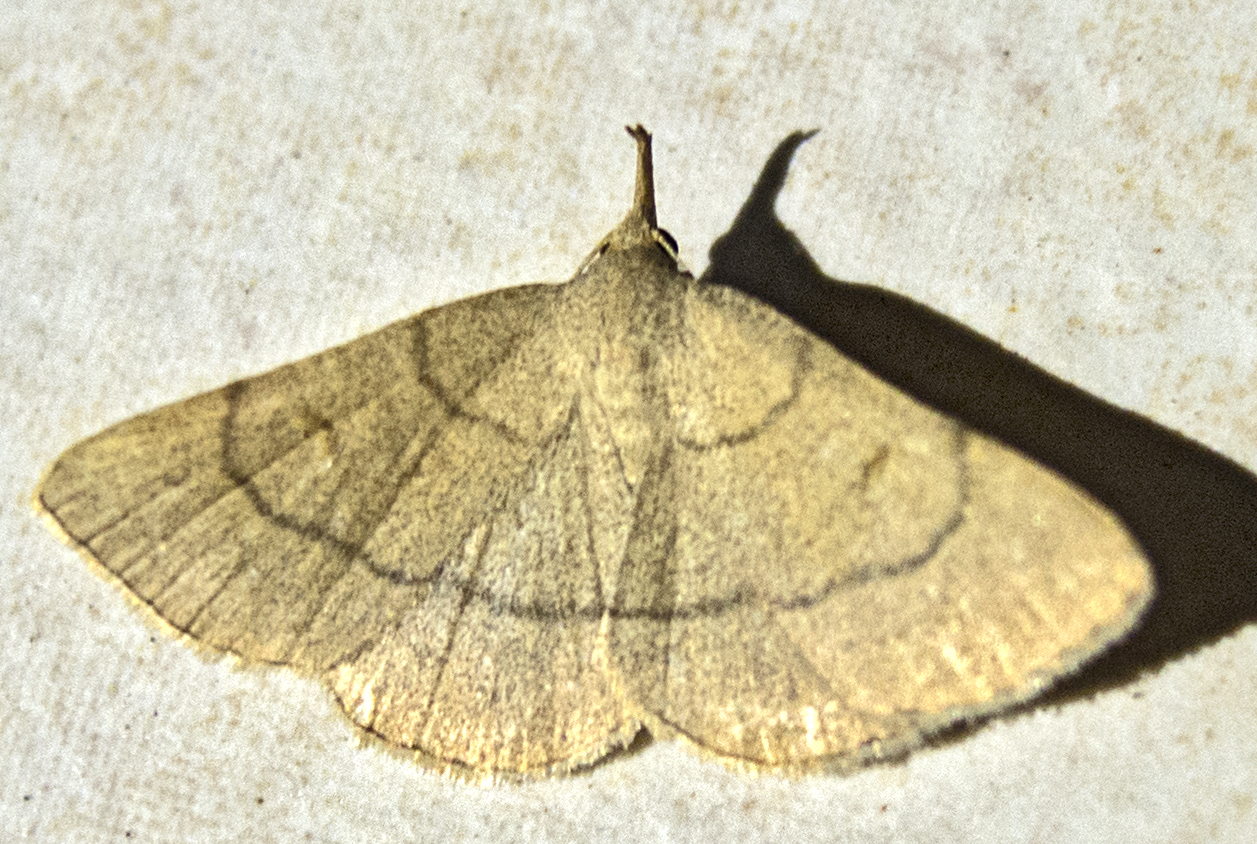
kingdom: Animalia
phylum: Arthropoda
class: Insecta
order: Lepidoptera
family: Erebidae
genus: Paracolax
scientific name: Paracolax tristalis
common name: Clay fan-foot
